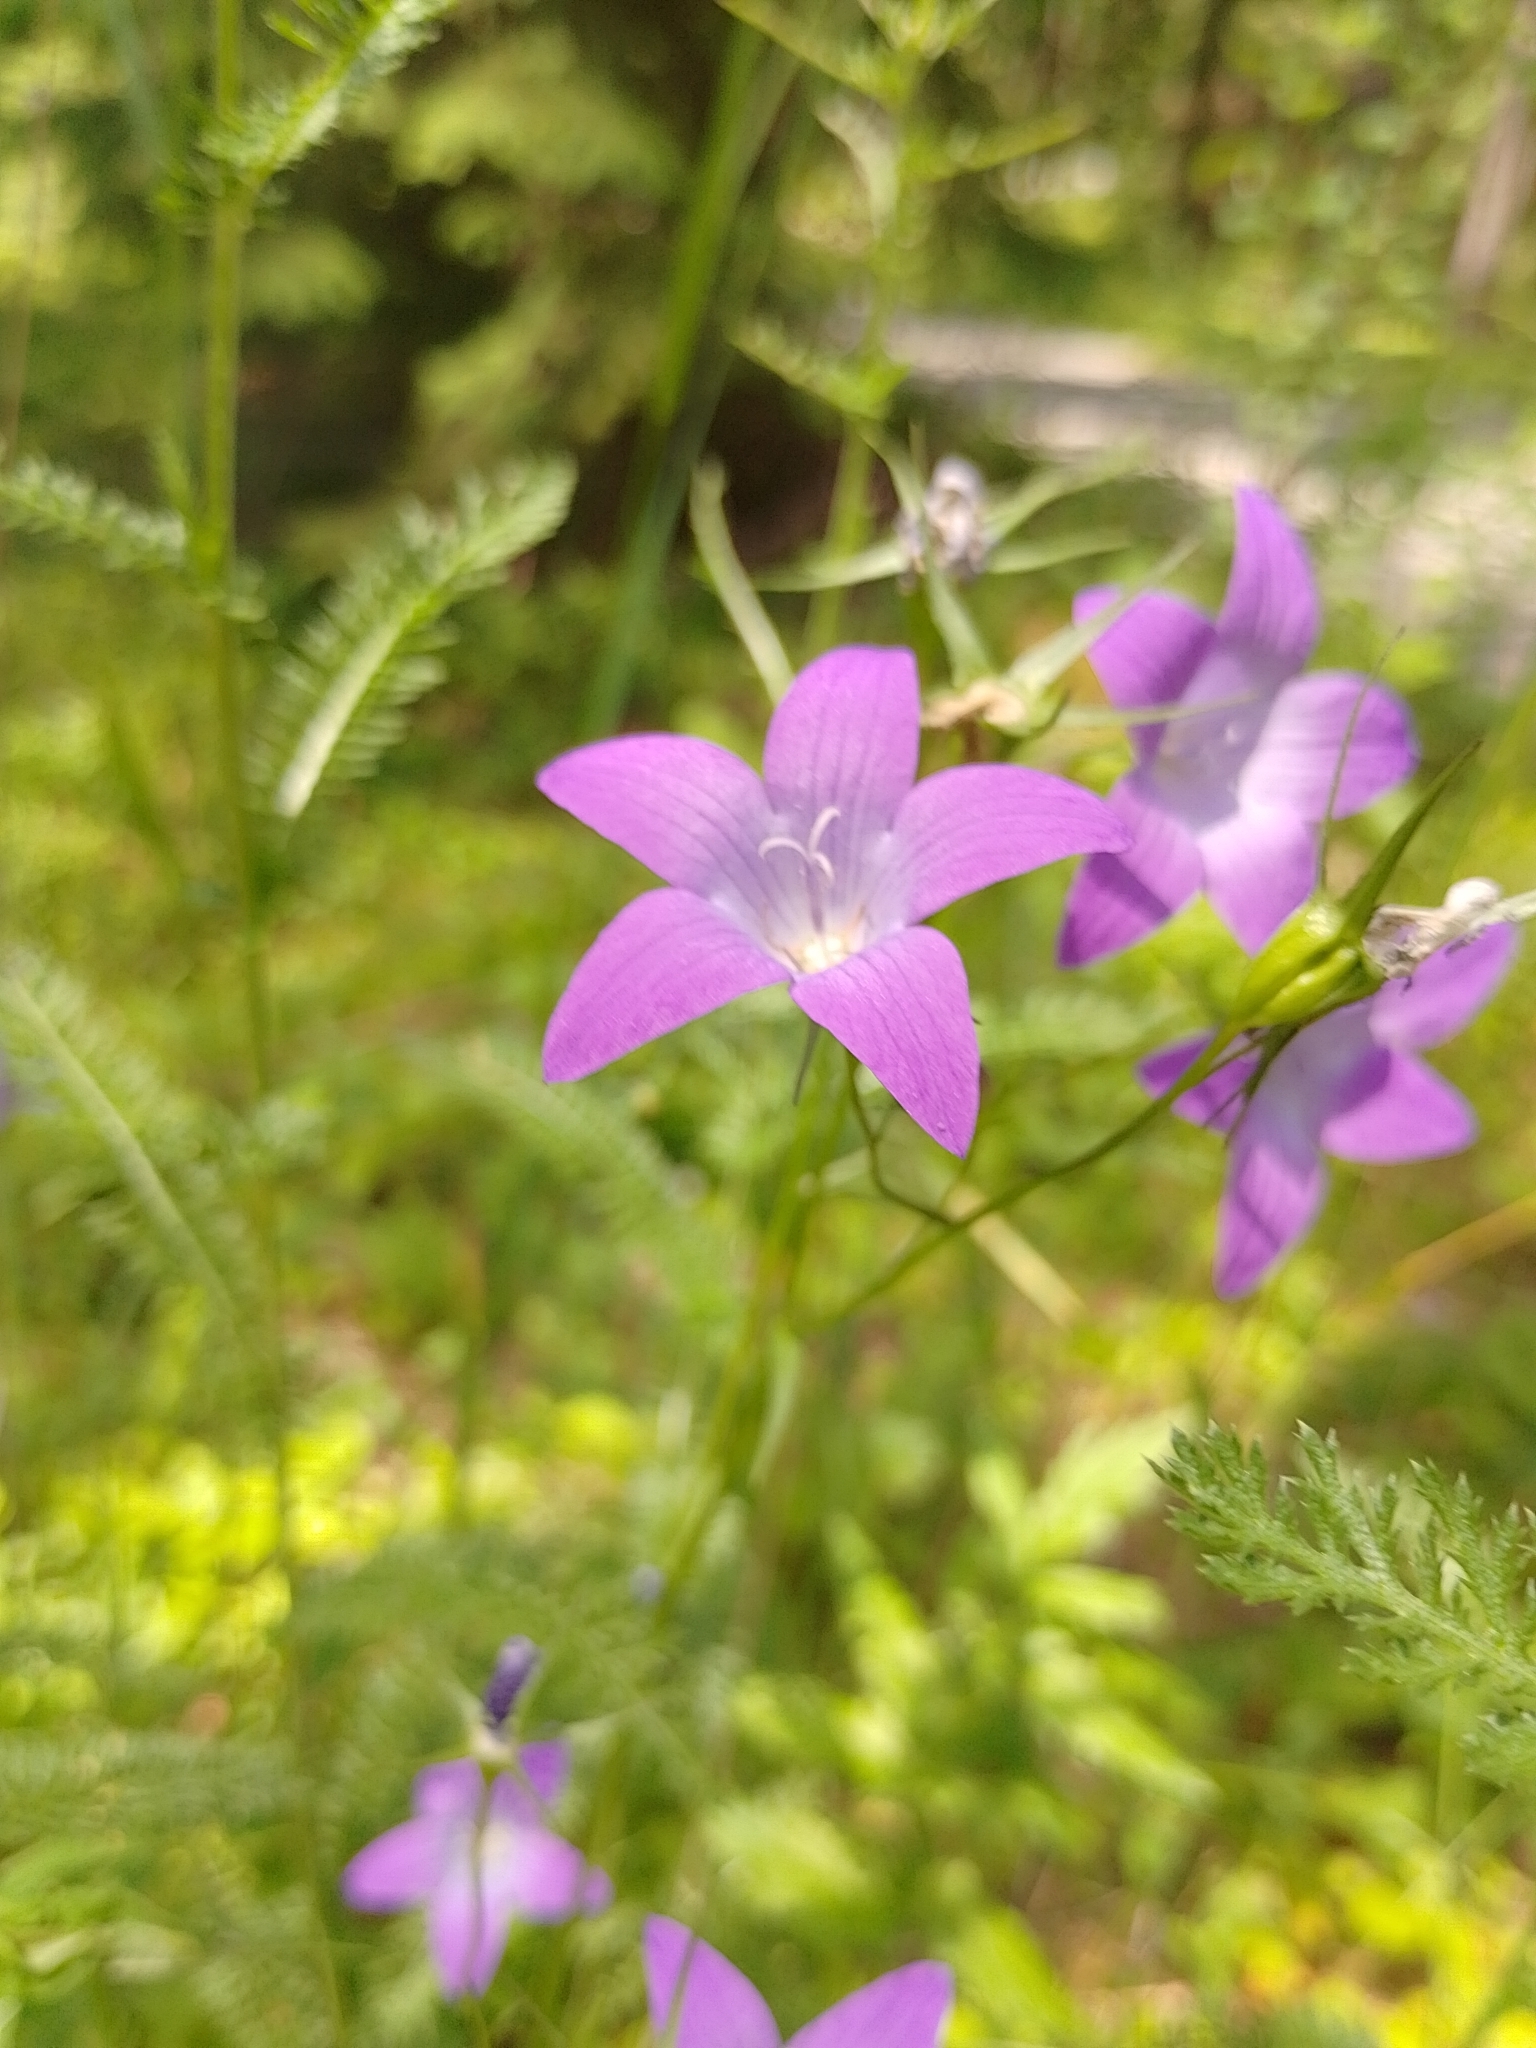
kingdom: Plantae
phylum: Tracheophyta
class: Magnoliopsida
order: Asterales
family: Campanulaceae
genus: Campanula
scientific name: Campanula patula
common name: Spreading bellflower
